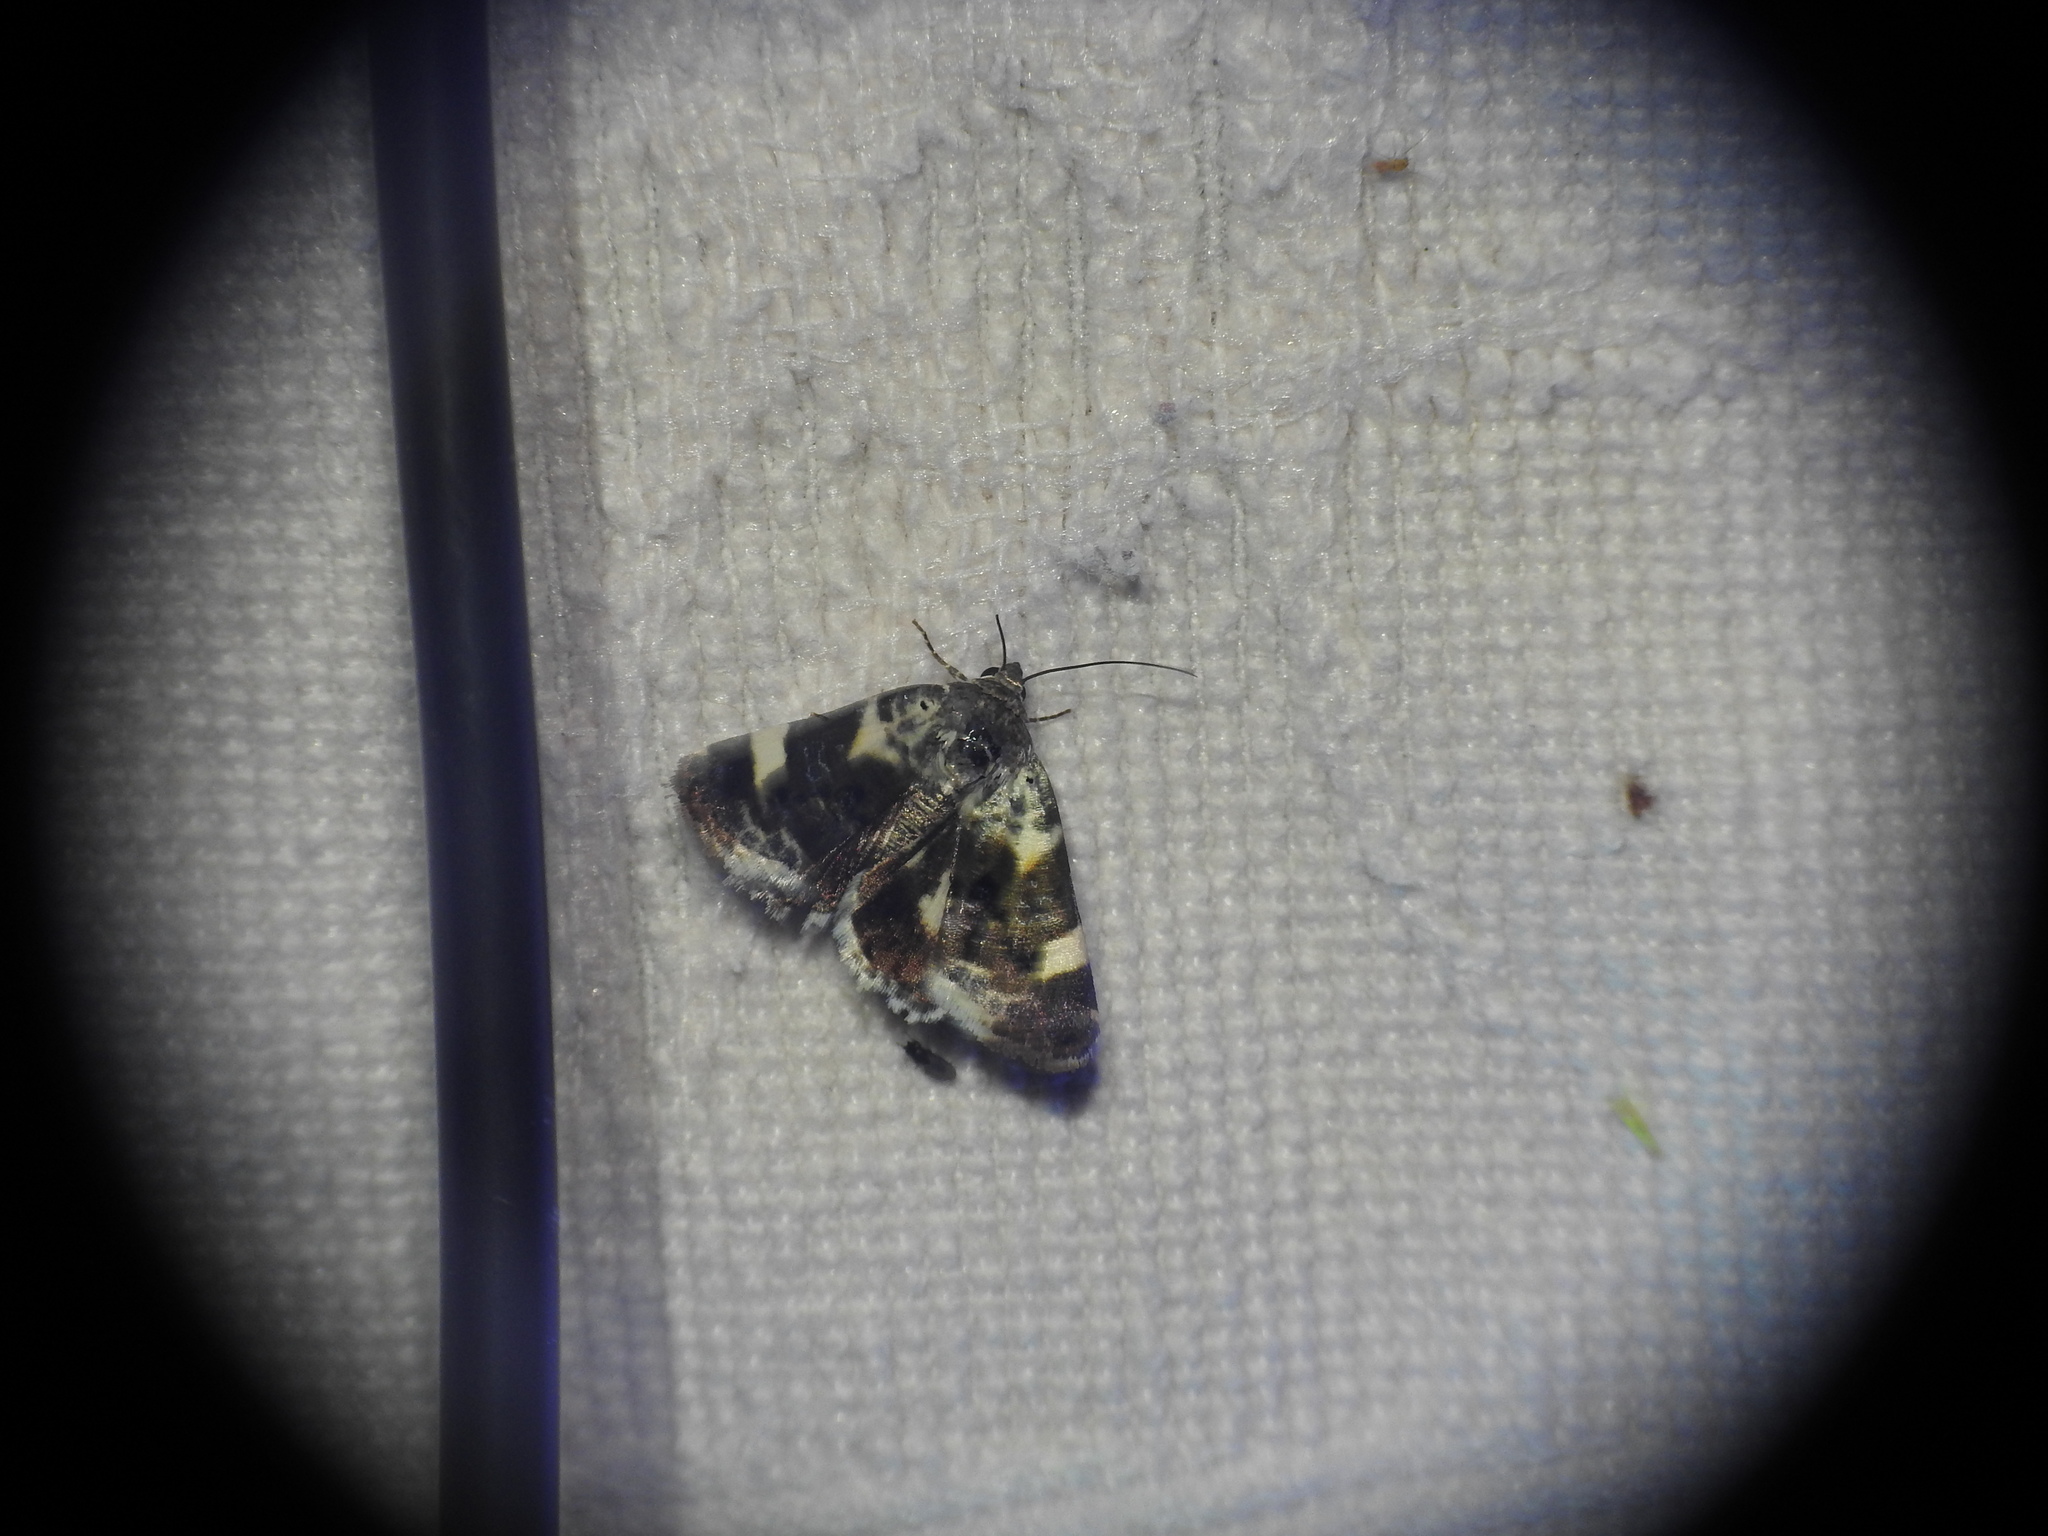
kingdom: Animalia
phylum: Arthropoda
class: Insecta
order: Lepidoptera
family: Noctuidae
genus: Acontia
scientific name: Acontia lucida
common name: Pale shoulder
